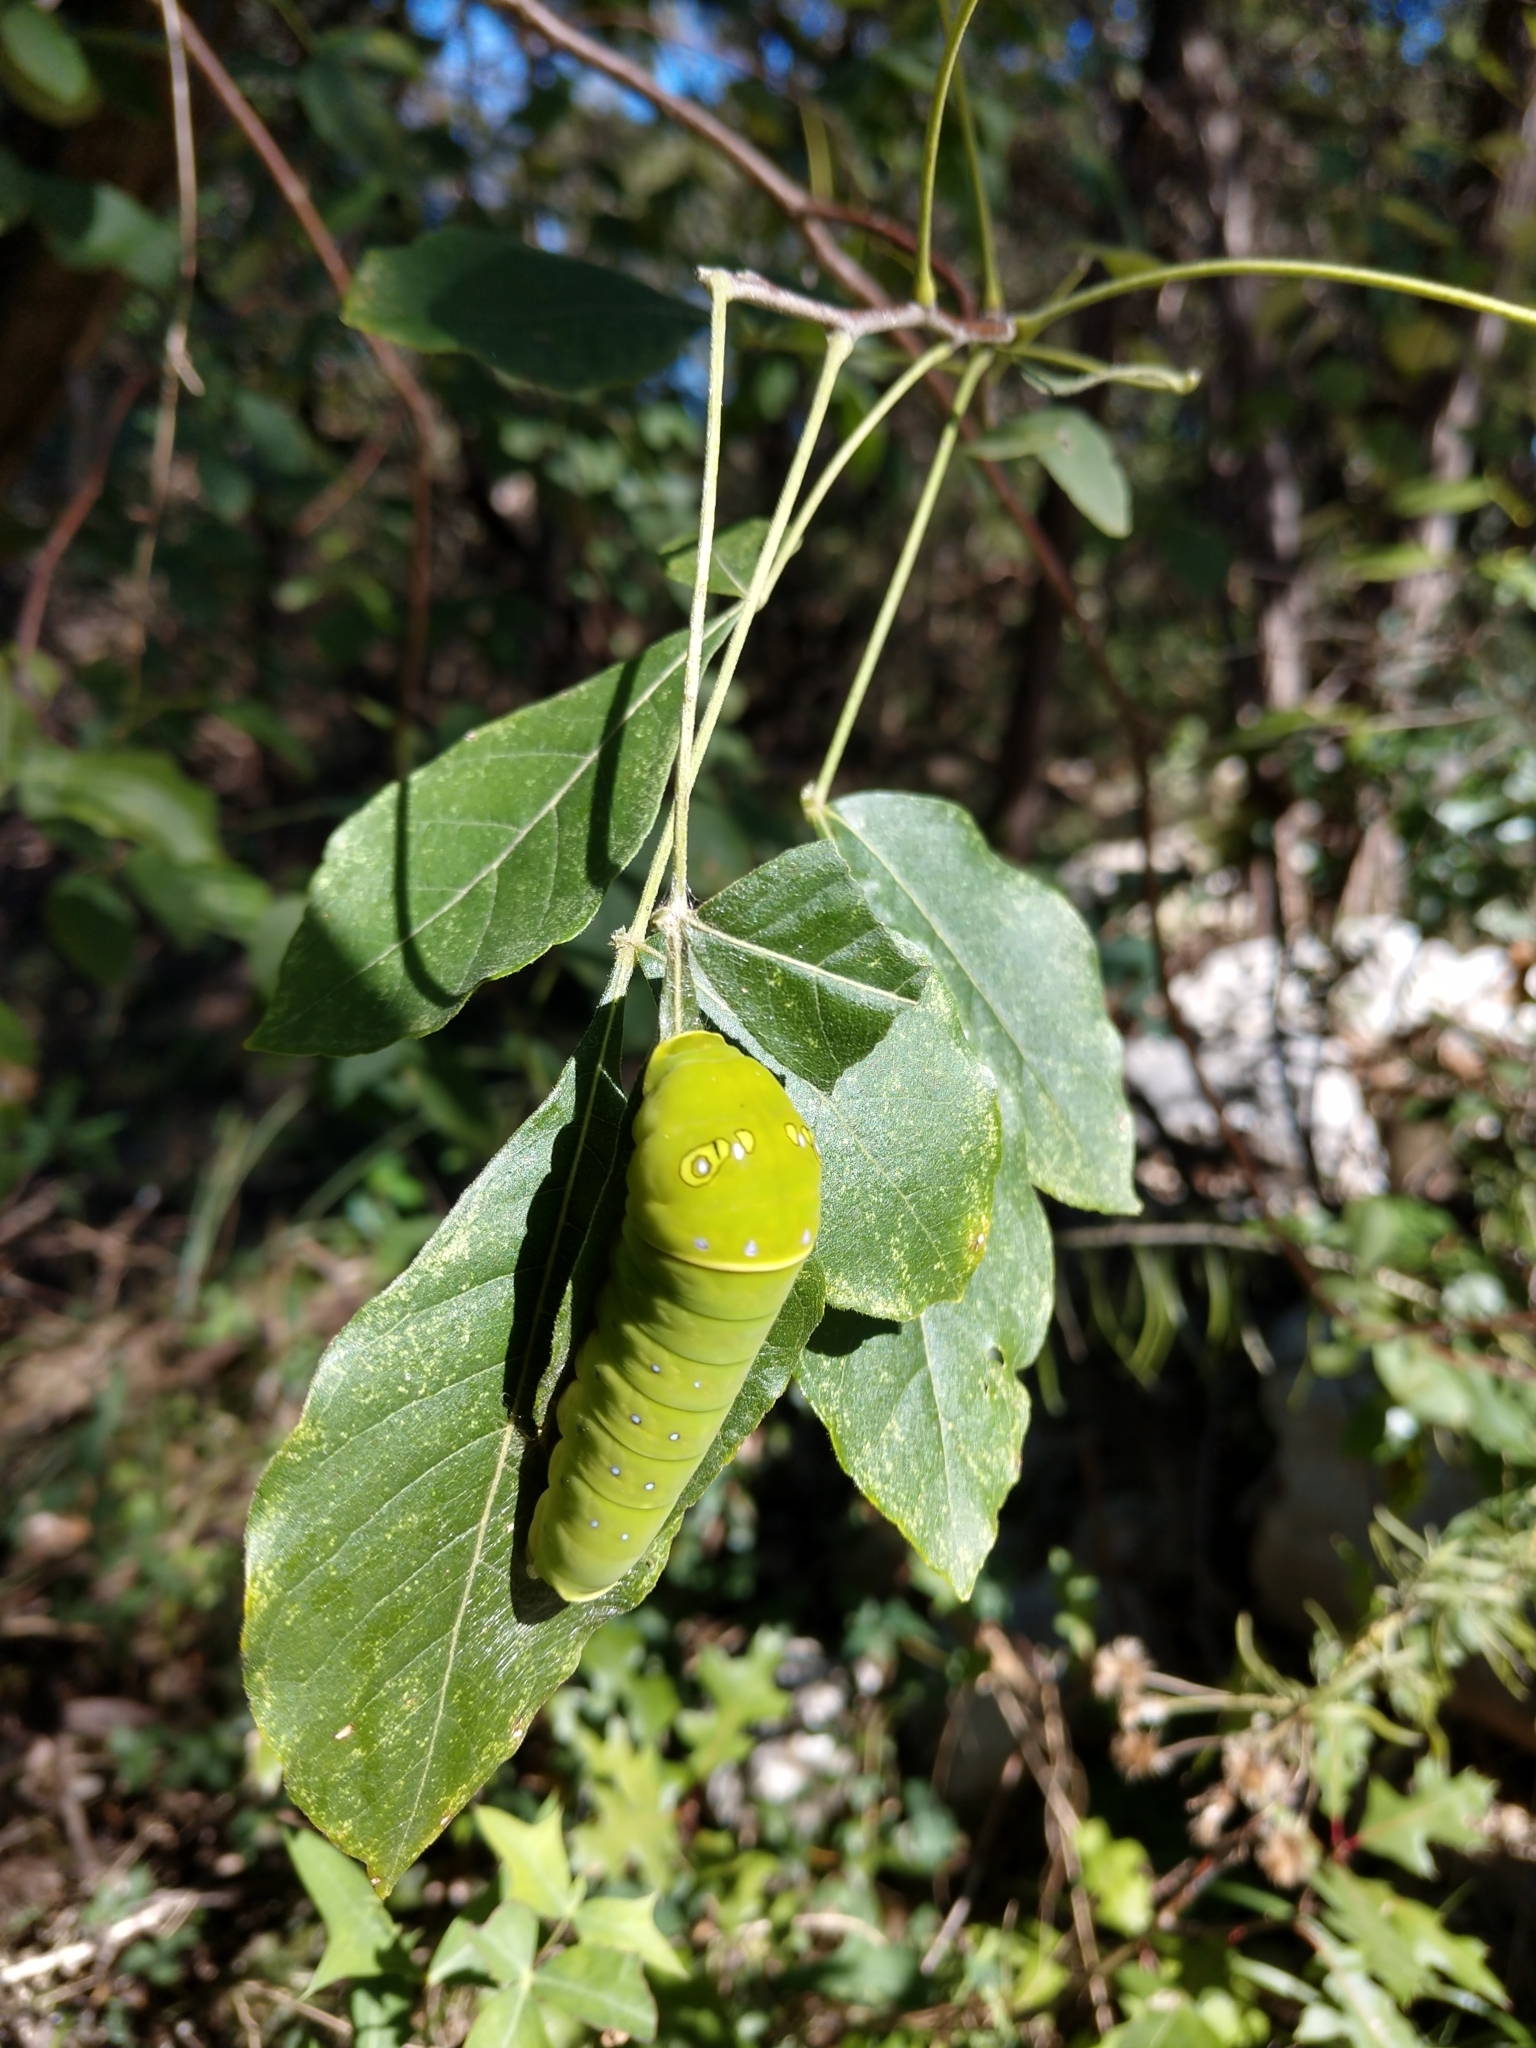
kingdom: Animalia
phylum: Arthropoda
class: Insecta
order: Lepidoptera
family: Papilionidae
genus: Papilio
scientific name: Papilio multicaudata
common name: Two-tailed tiger swallowtail
